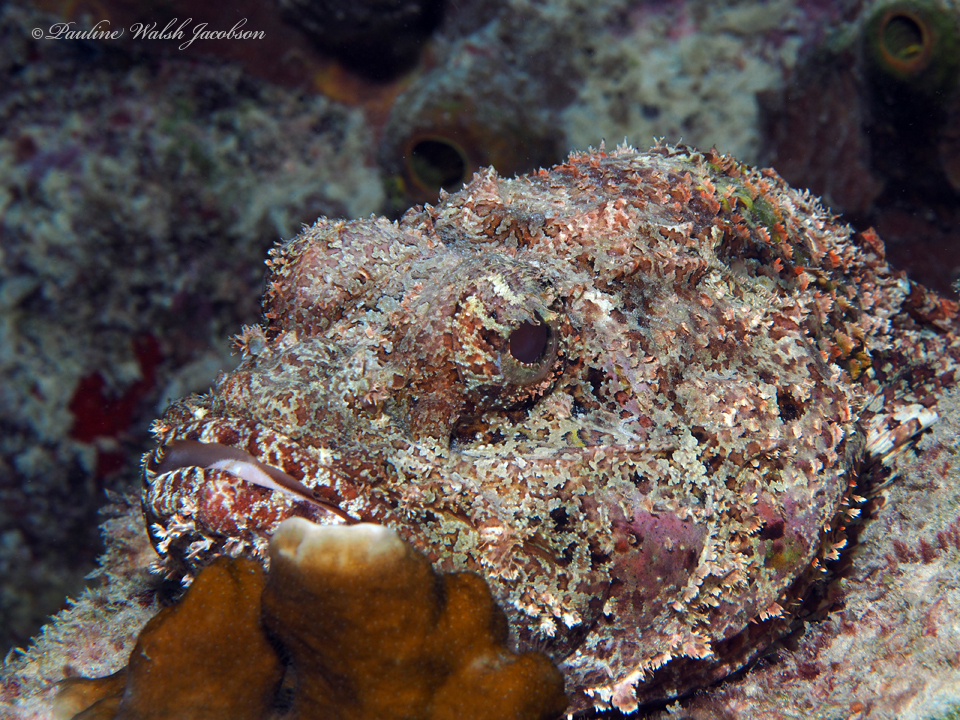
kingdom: Animalia
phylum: Chordata
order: Scorpaeniformes
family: Scorpaenidae
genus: Scorpaena
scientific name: Scorpaena plumieri
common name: Spotted scorpionfish
